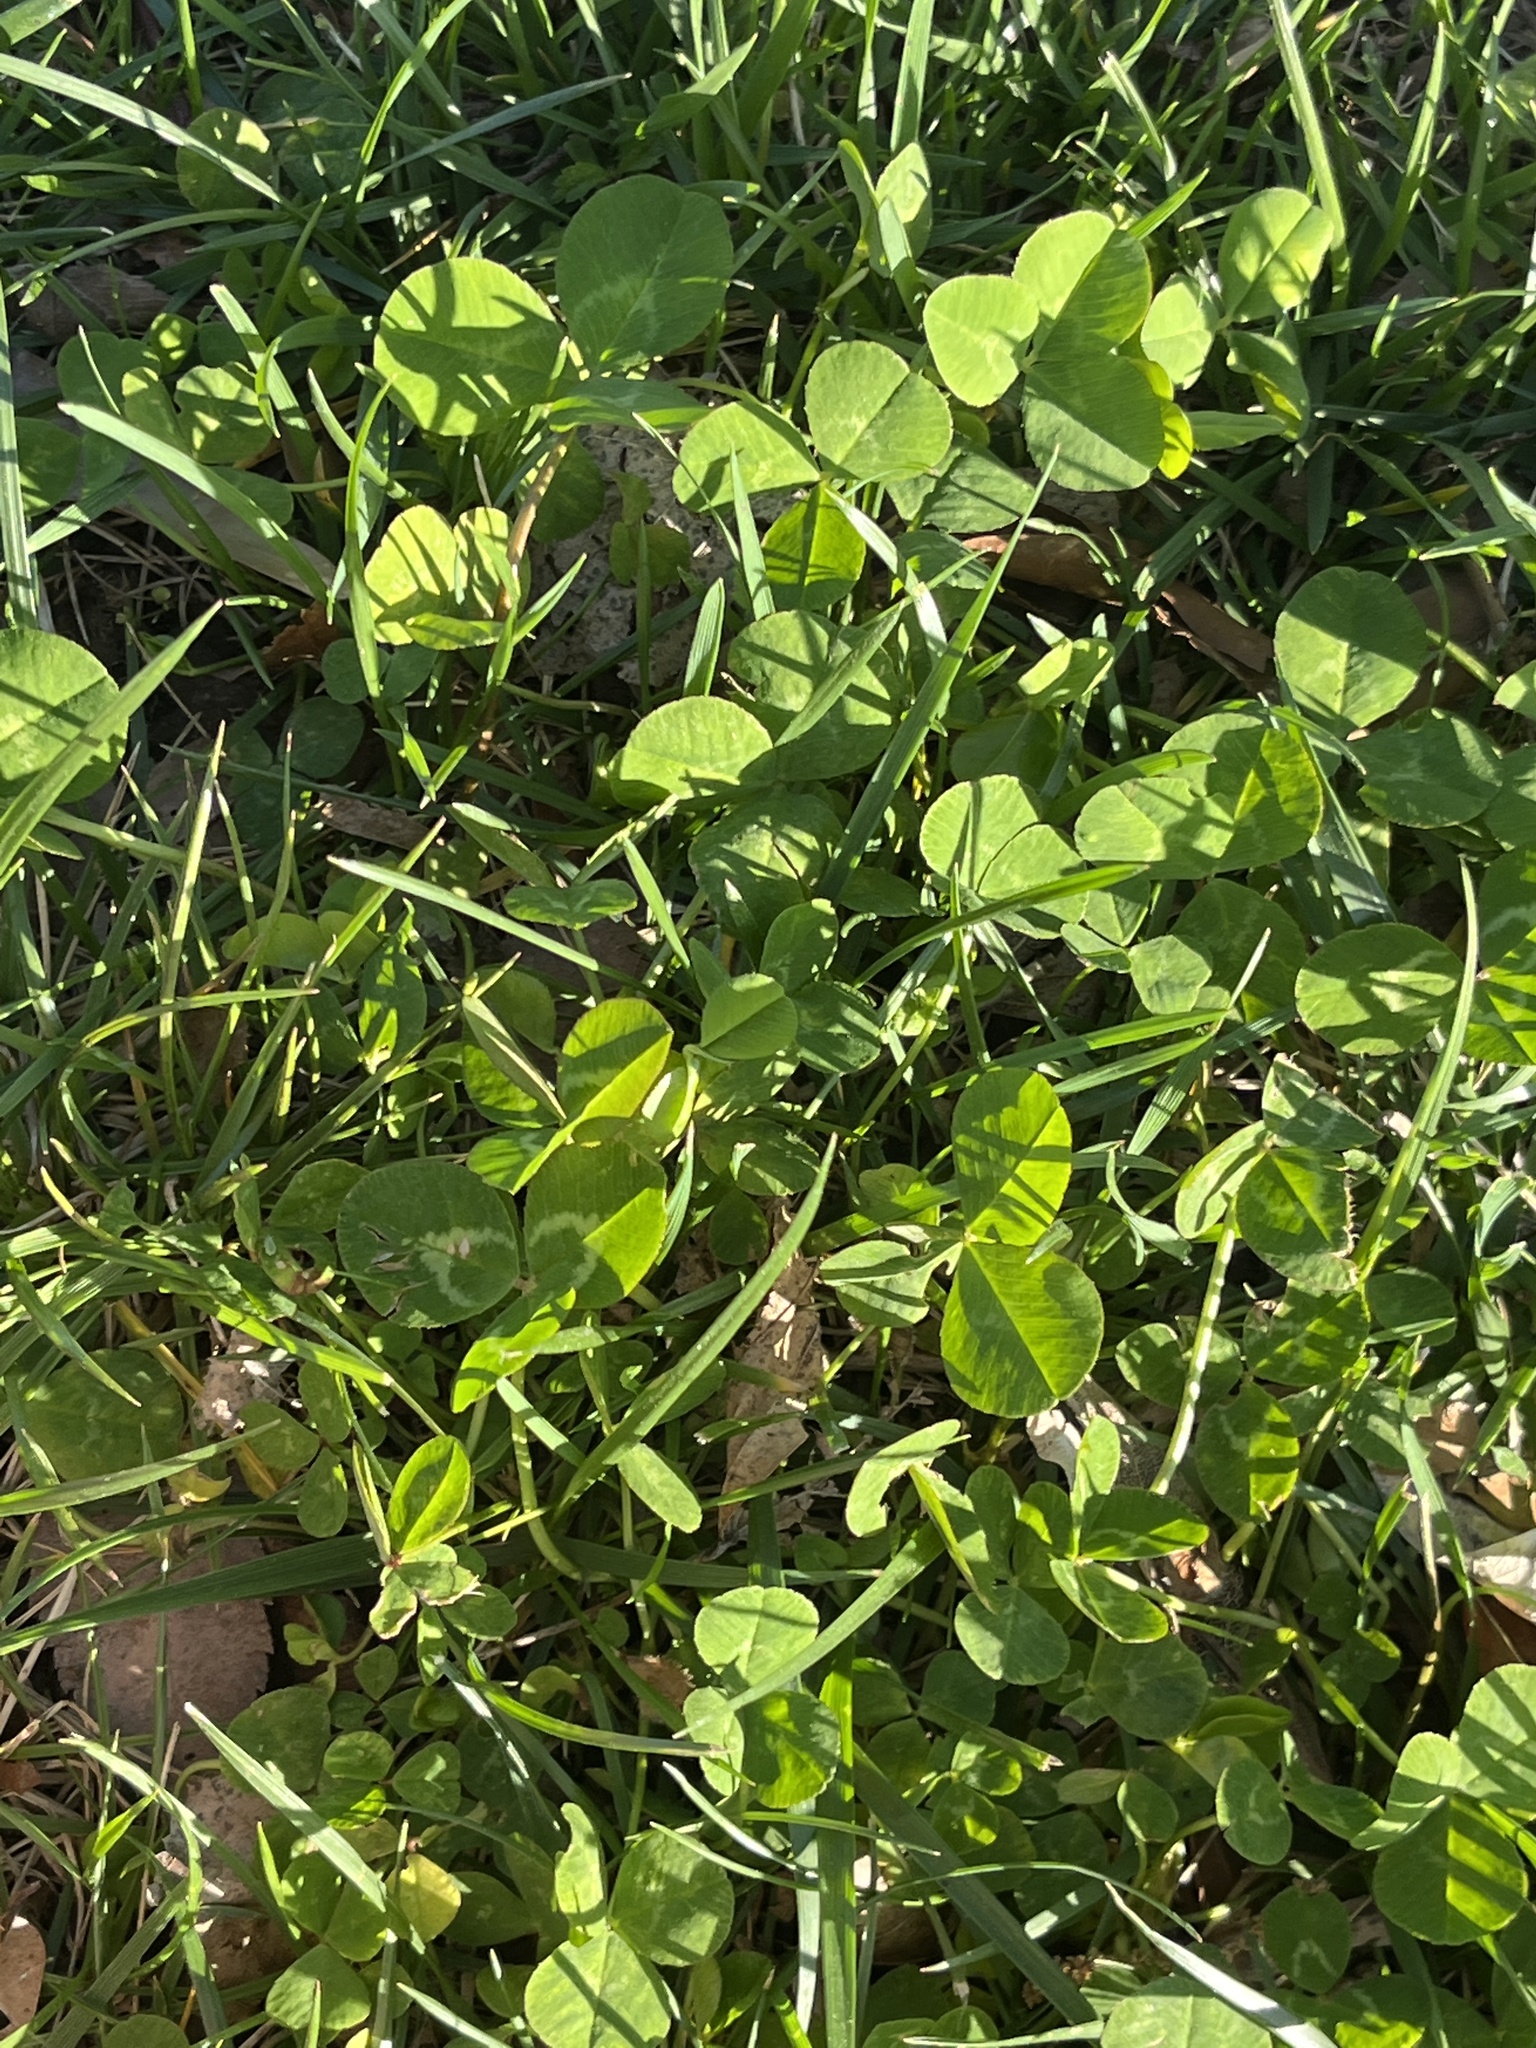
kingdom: Plantae
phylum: Tracheophyta
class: Magnoliopsida
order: Fabales
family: Fabaceae
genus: Trifolium
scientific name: Trifolium repens
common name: White clover
